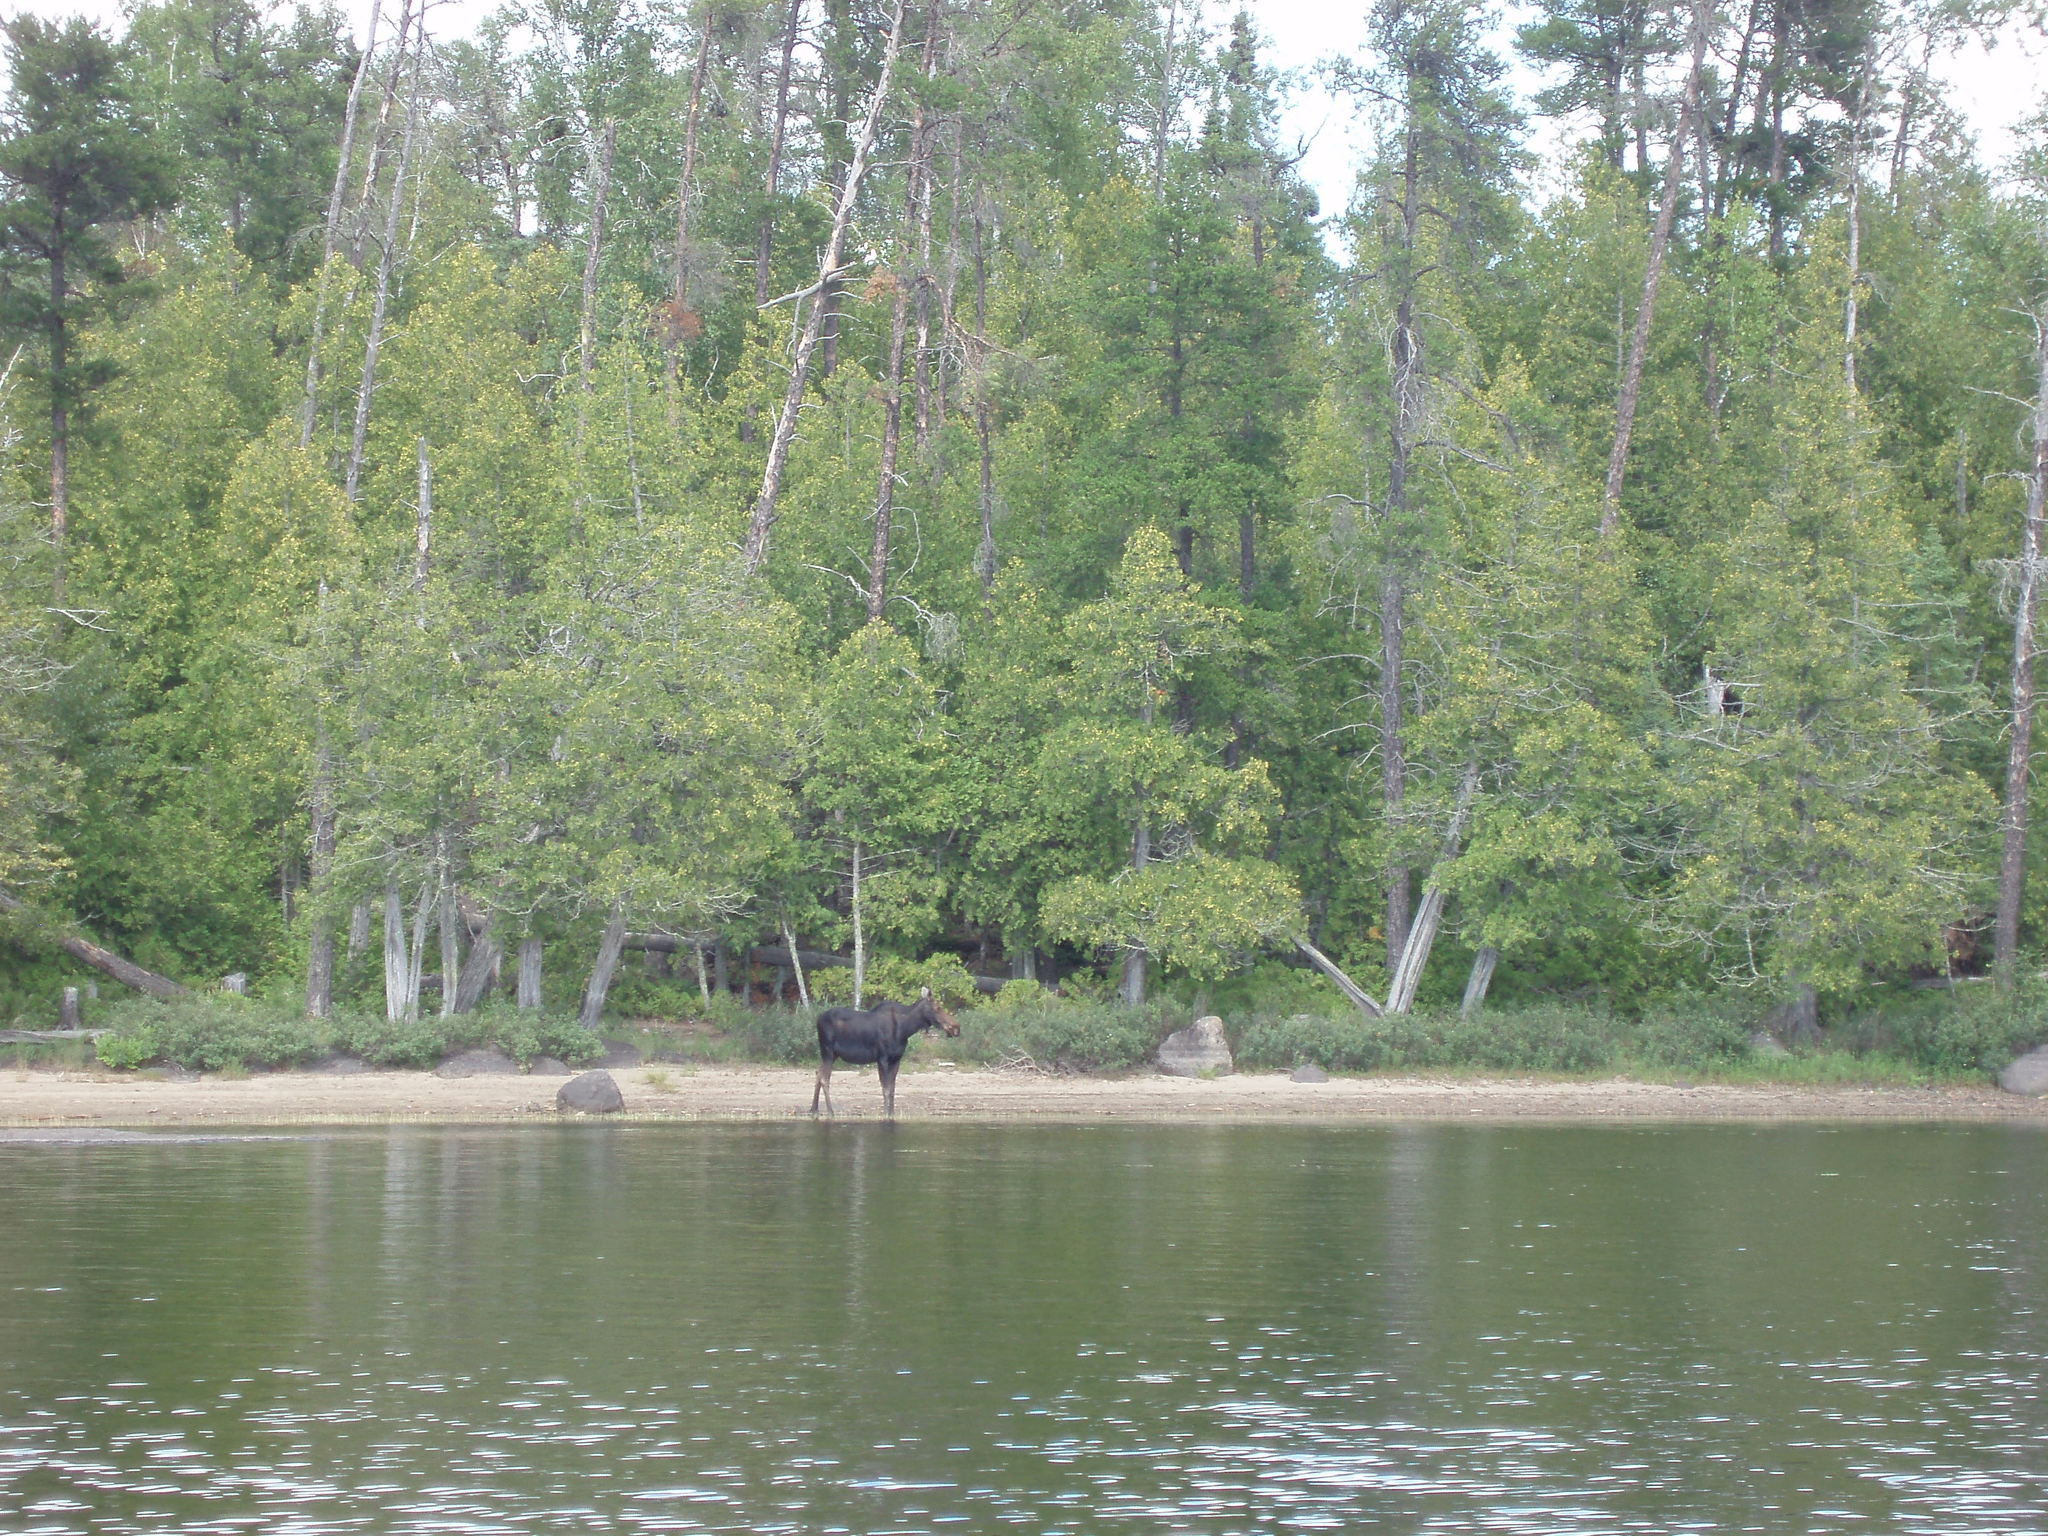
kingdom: Animalia
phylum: Chordata
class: Mammalia
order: Artiodactyla
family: Cervidae
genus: Alces
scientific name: Alces alces
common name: Moose
